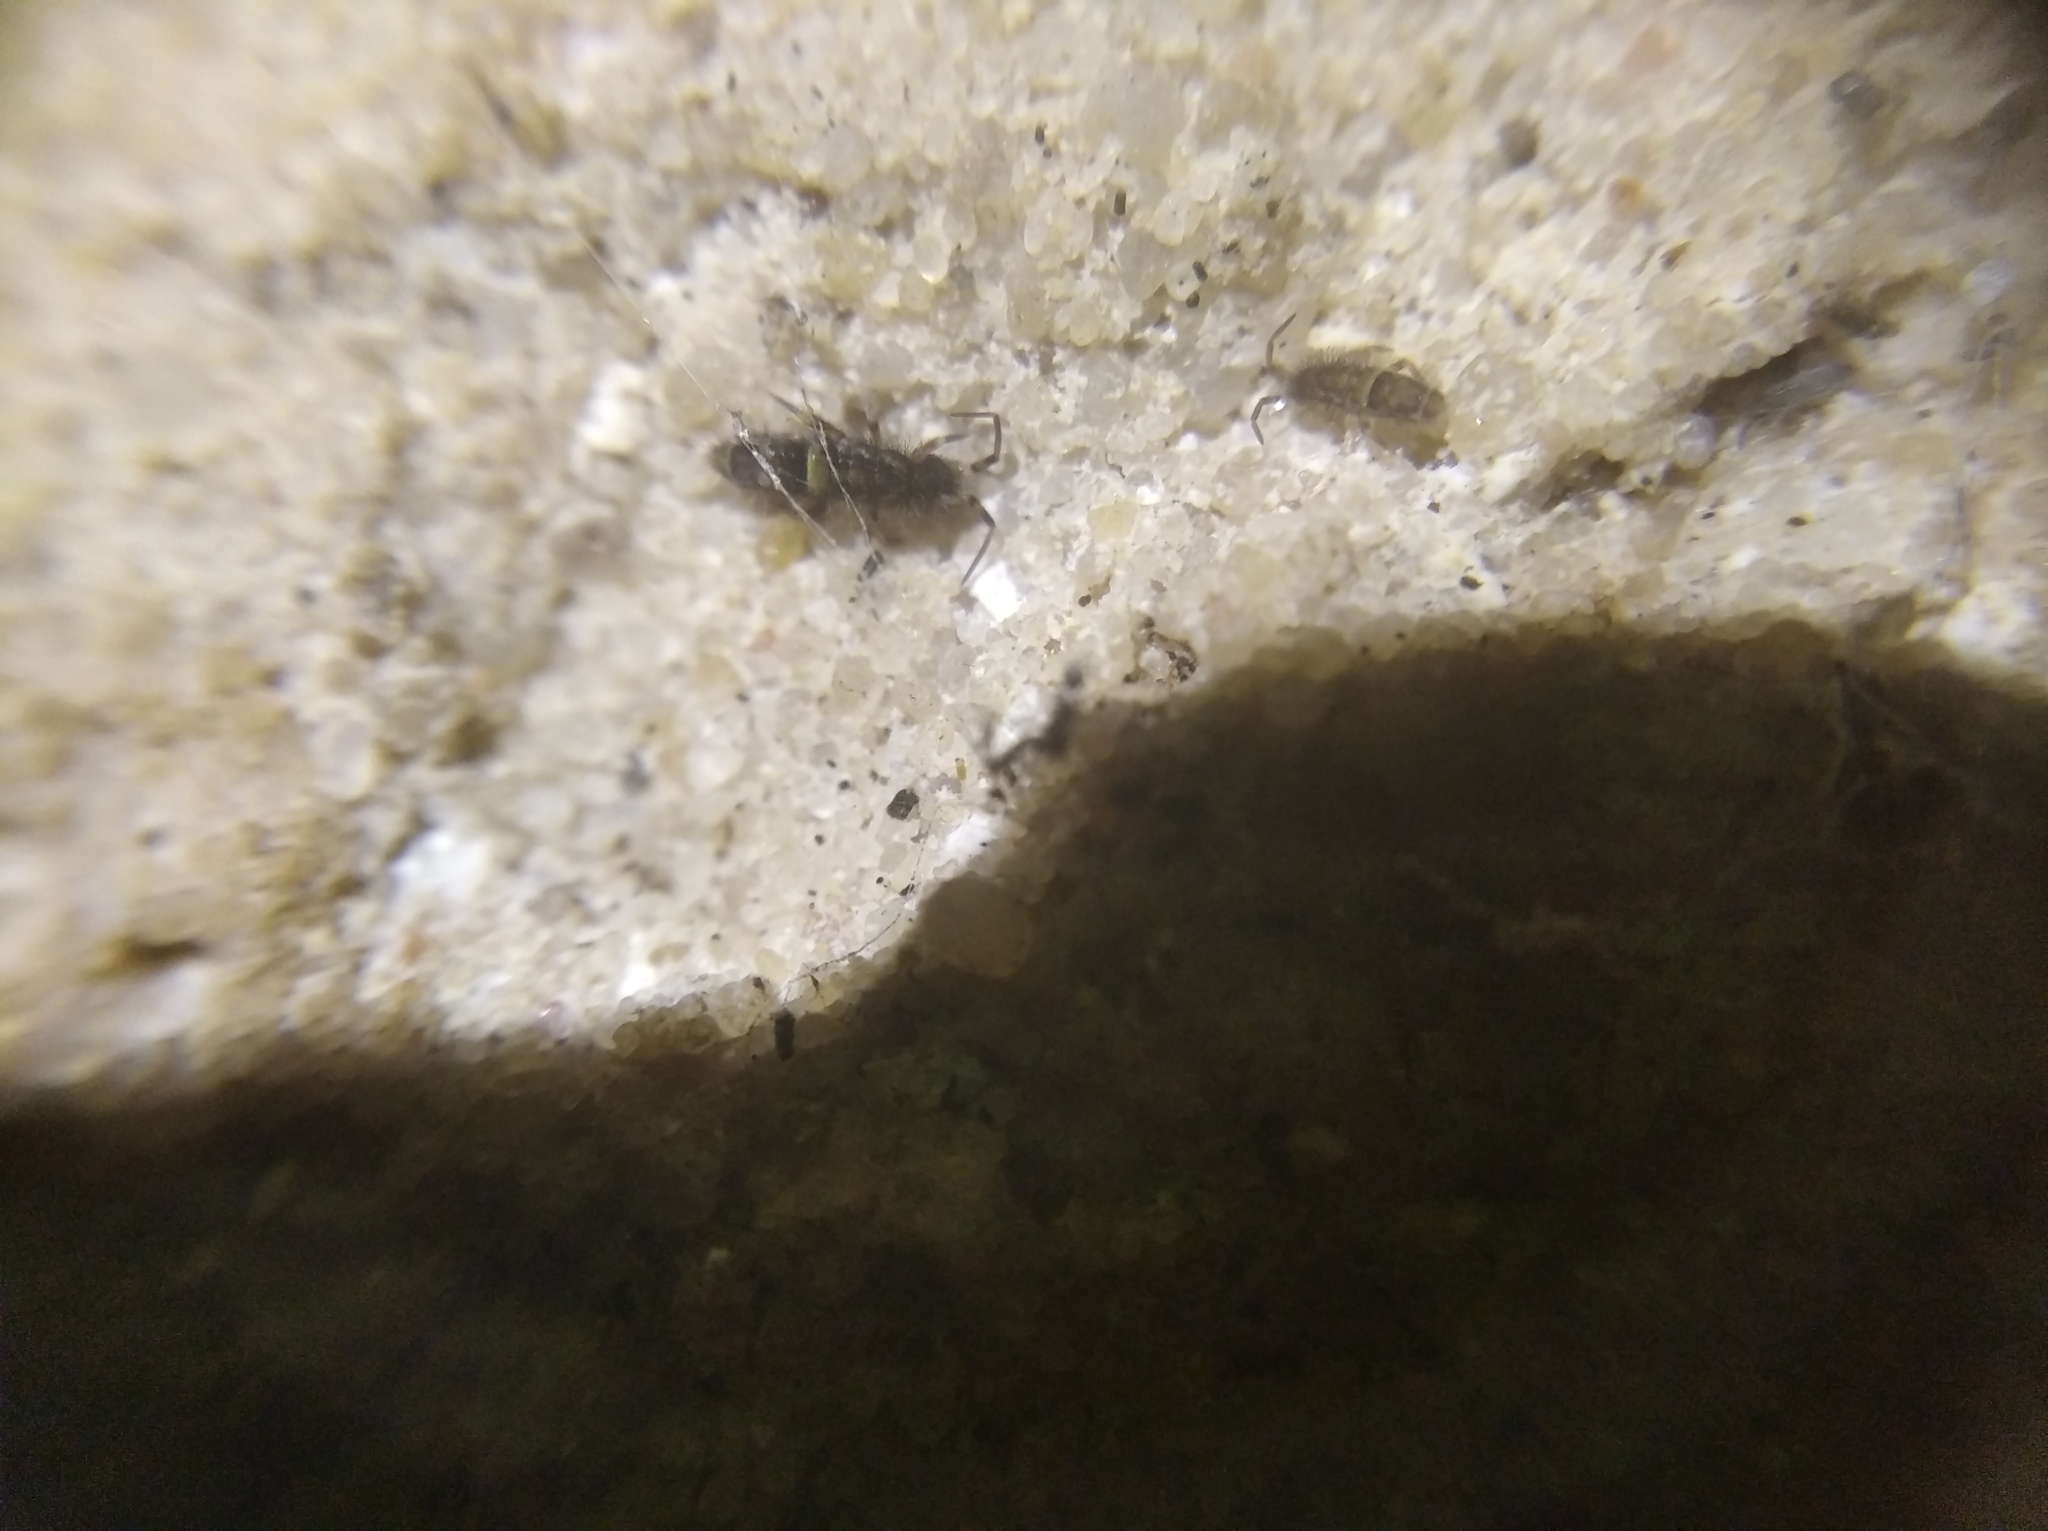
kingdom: Animalia
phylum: Arthropoda
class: Collembola
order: Entomobryomorpha
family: Orchesellidae
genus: Orchesella
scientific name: Orchesella cincta
